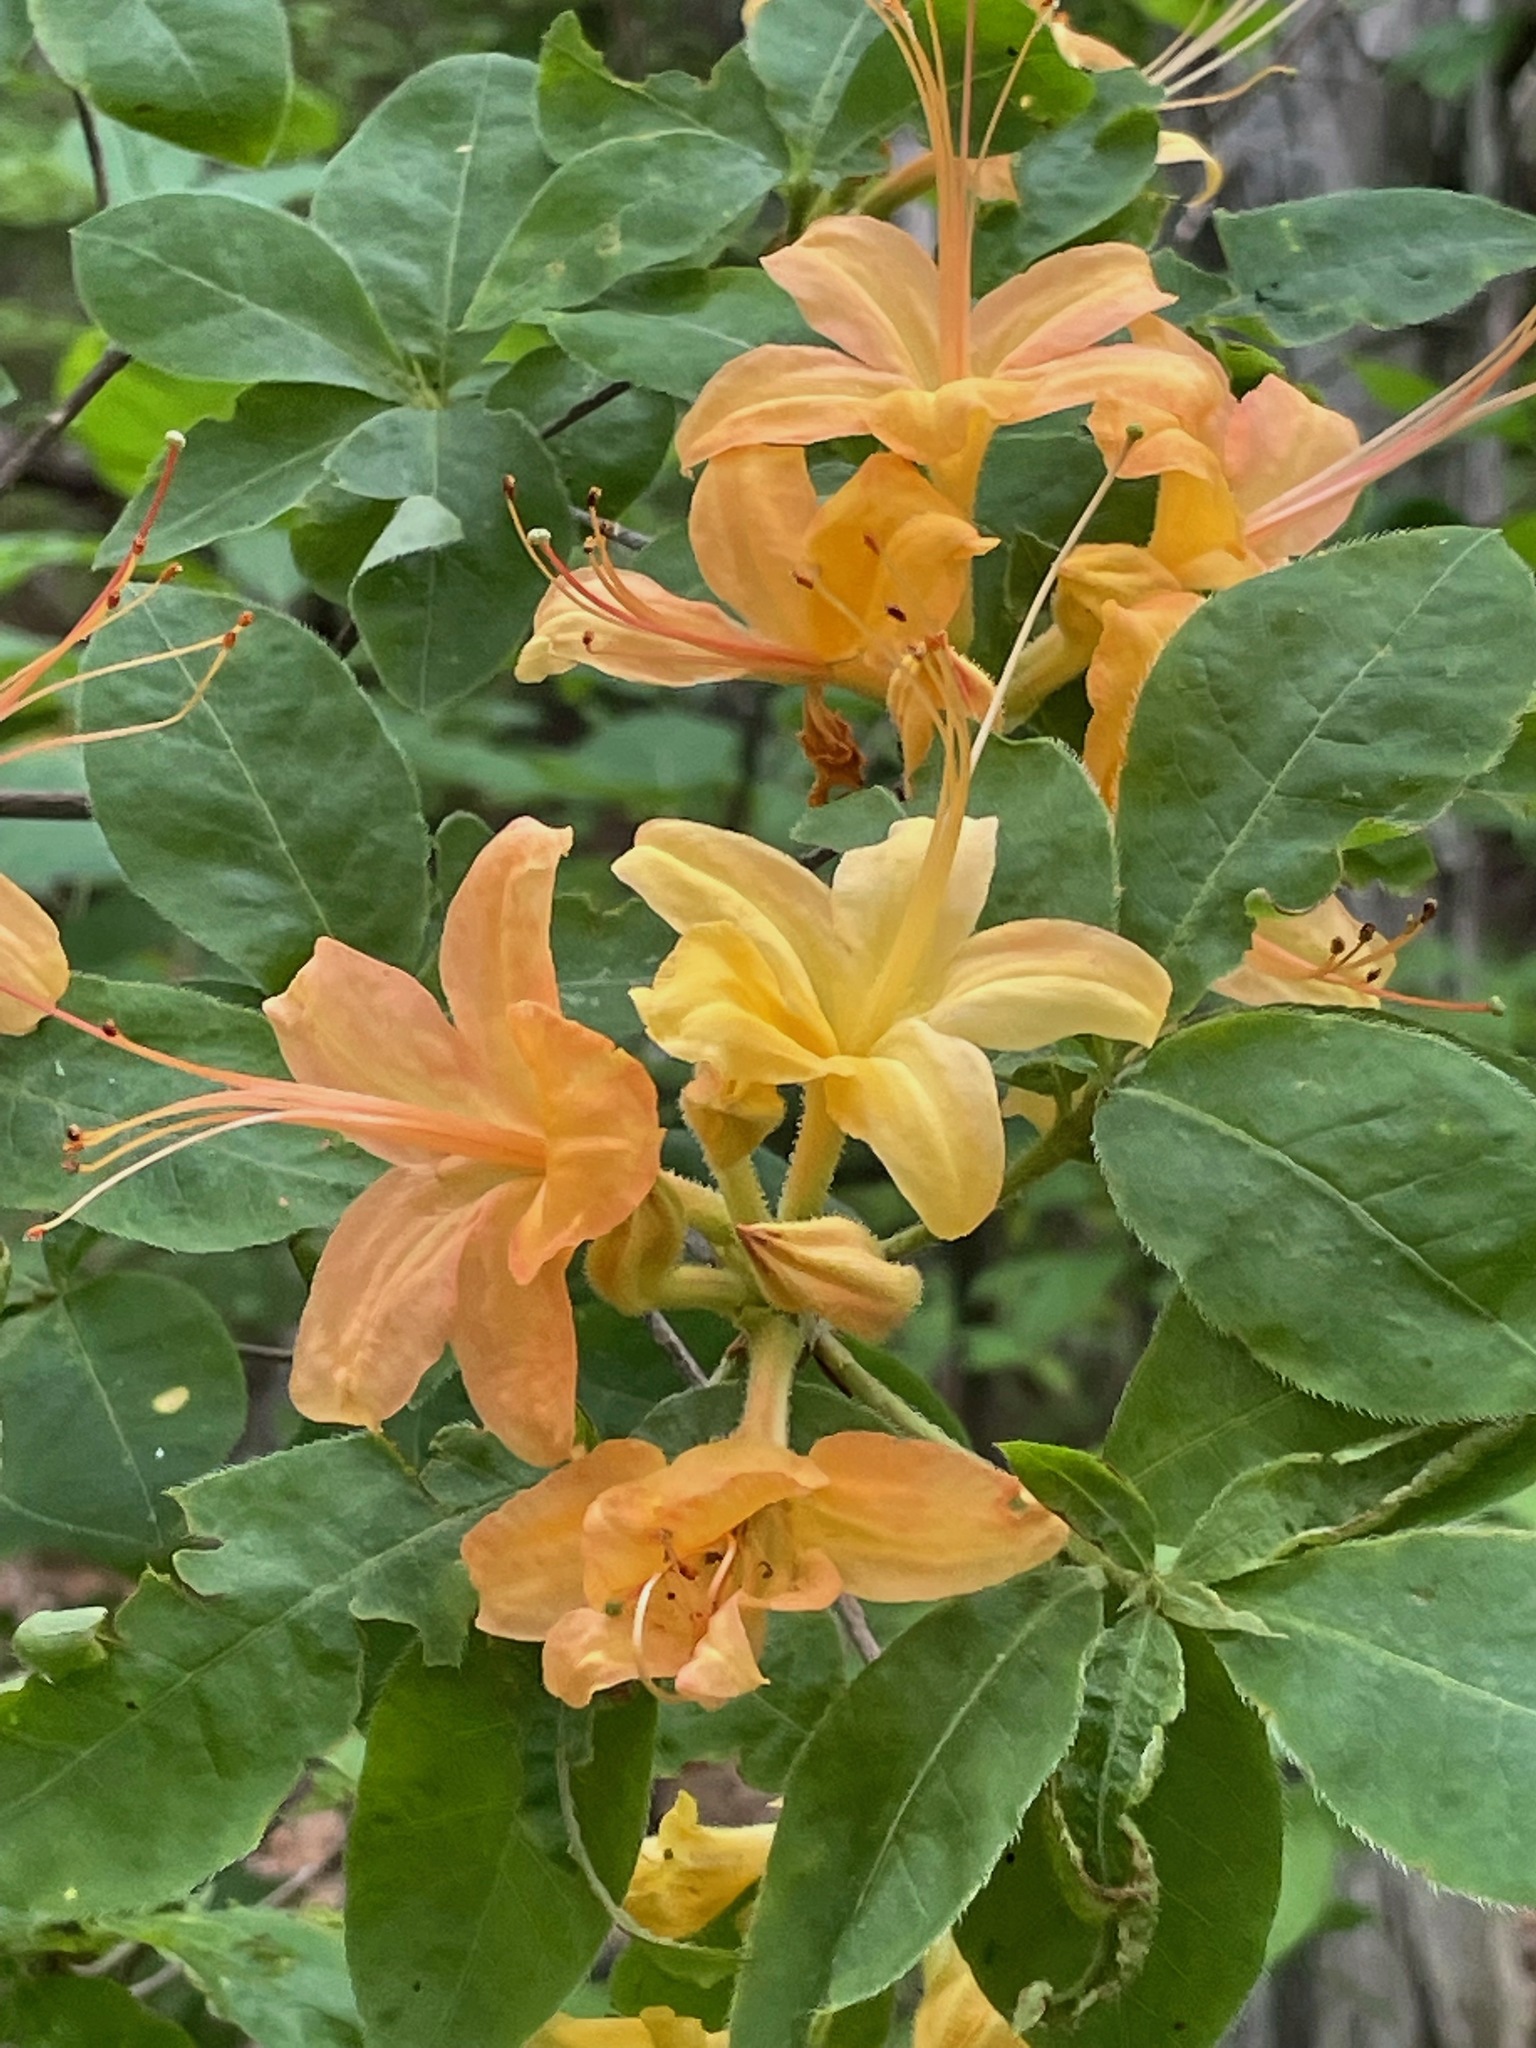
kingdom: Plantae
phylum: Tracheophyta
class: Magnoliopsida
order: Ericales
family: Ericaceae
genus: Rhododendron
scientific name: Rhododendron calendulaceum
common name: Flame azalea
